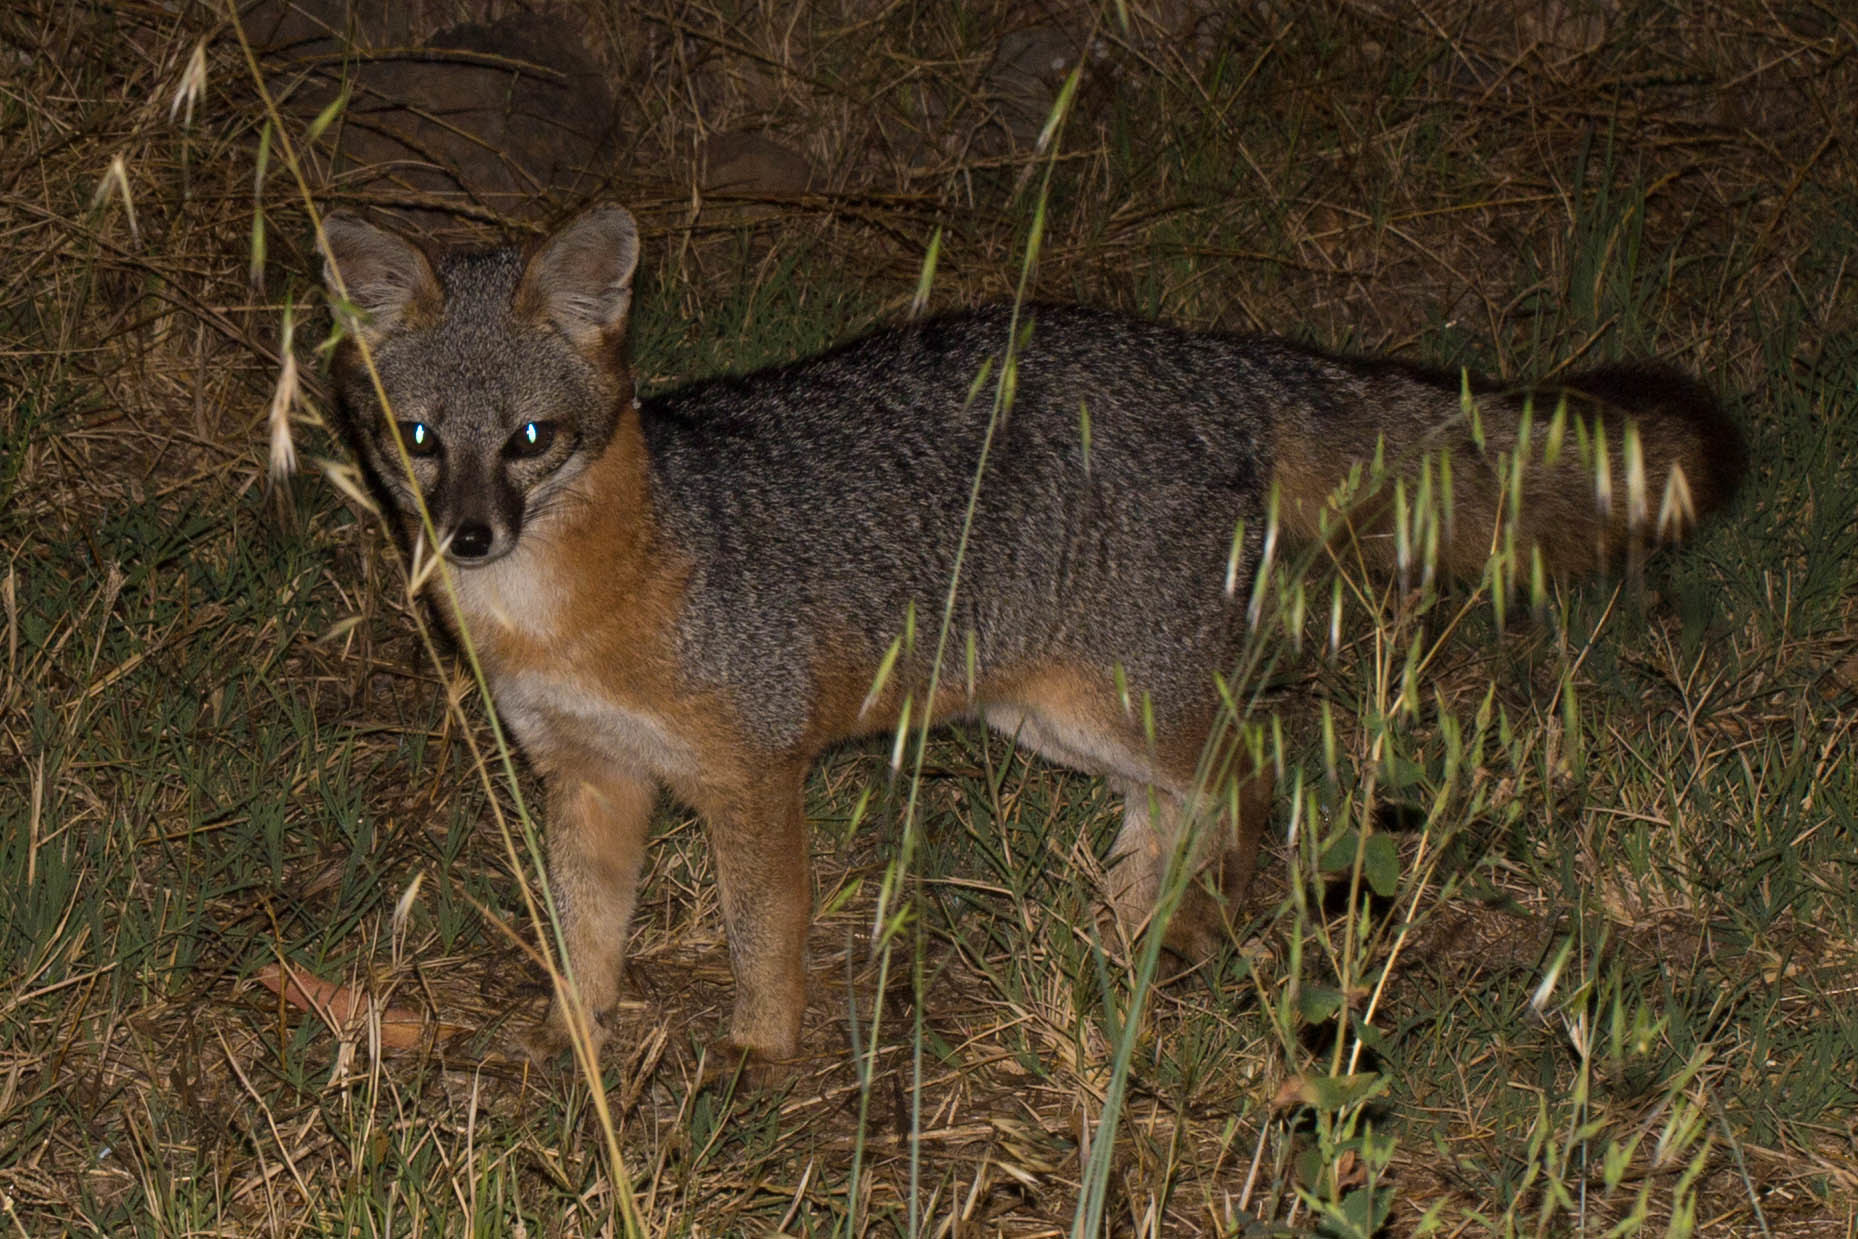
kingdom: Animalia
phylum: Chordata
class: Mammalia
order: Carnivora
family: Canidae
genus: Urocyon
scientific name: Urocyon littoralis
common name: Island gray fox
